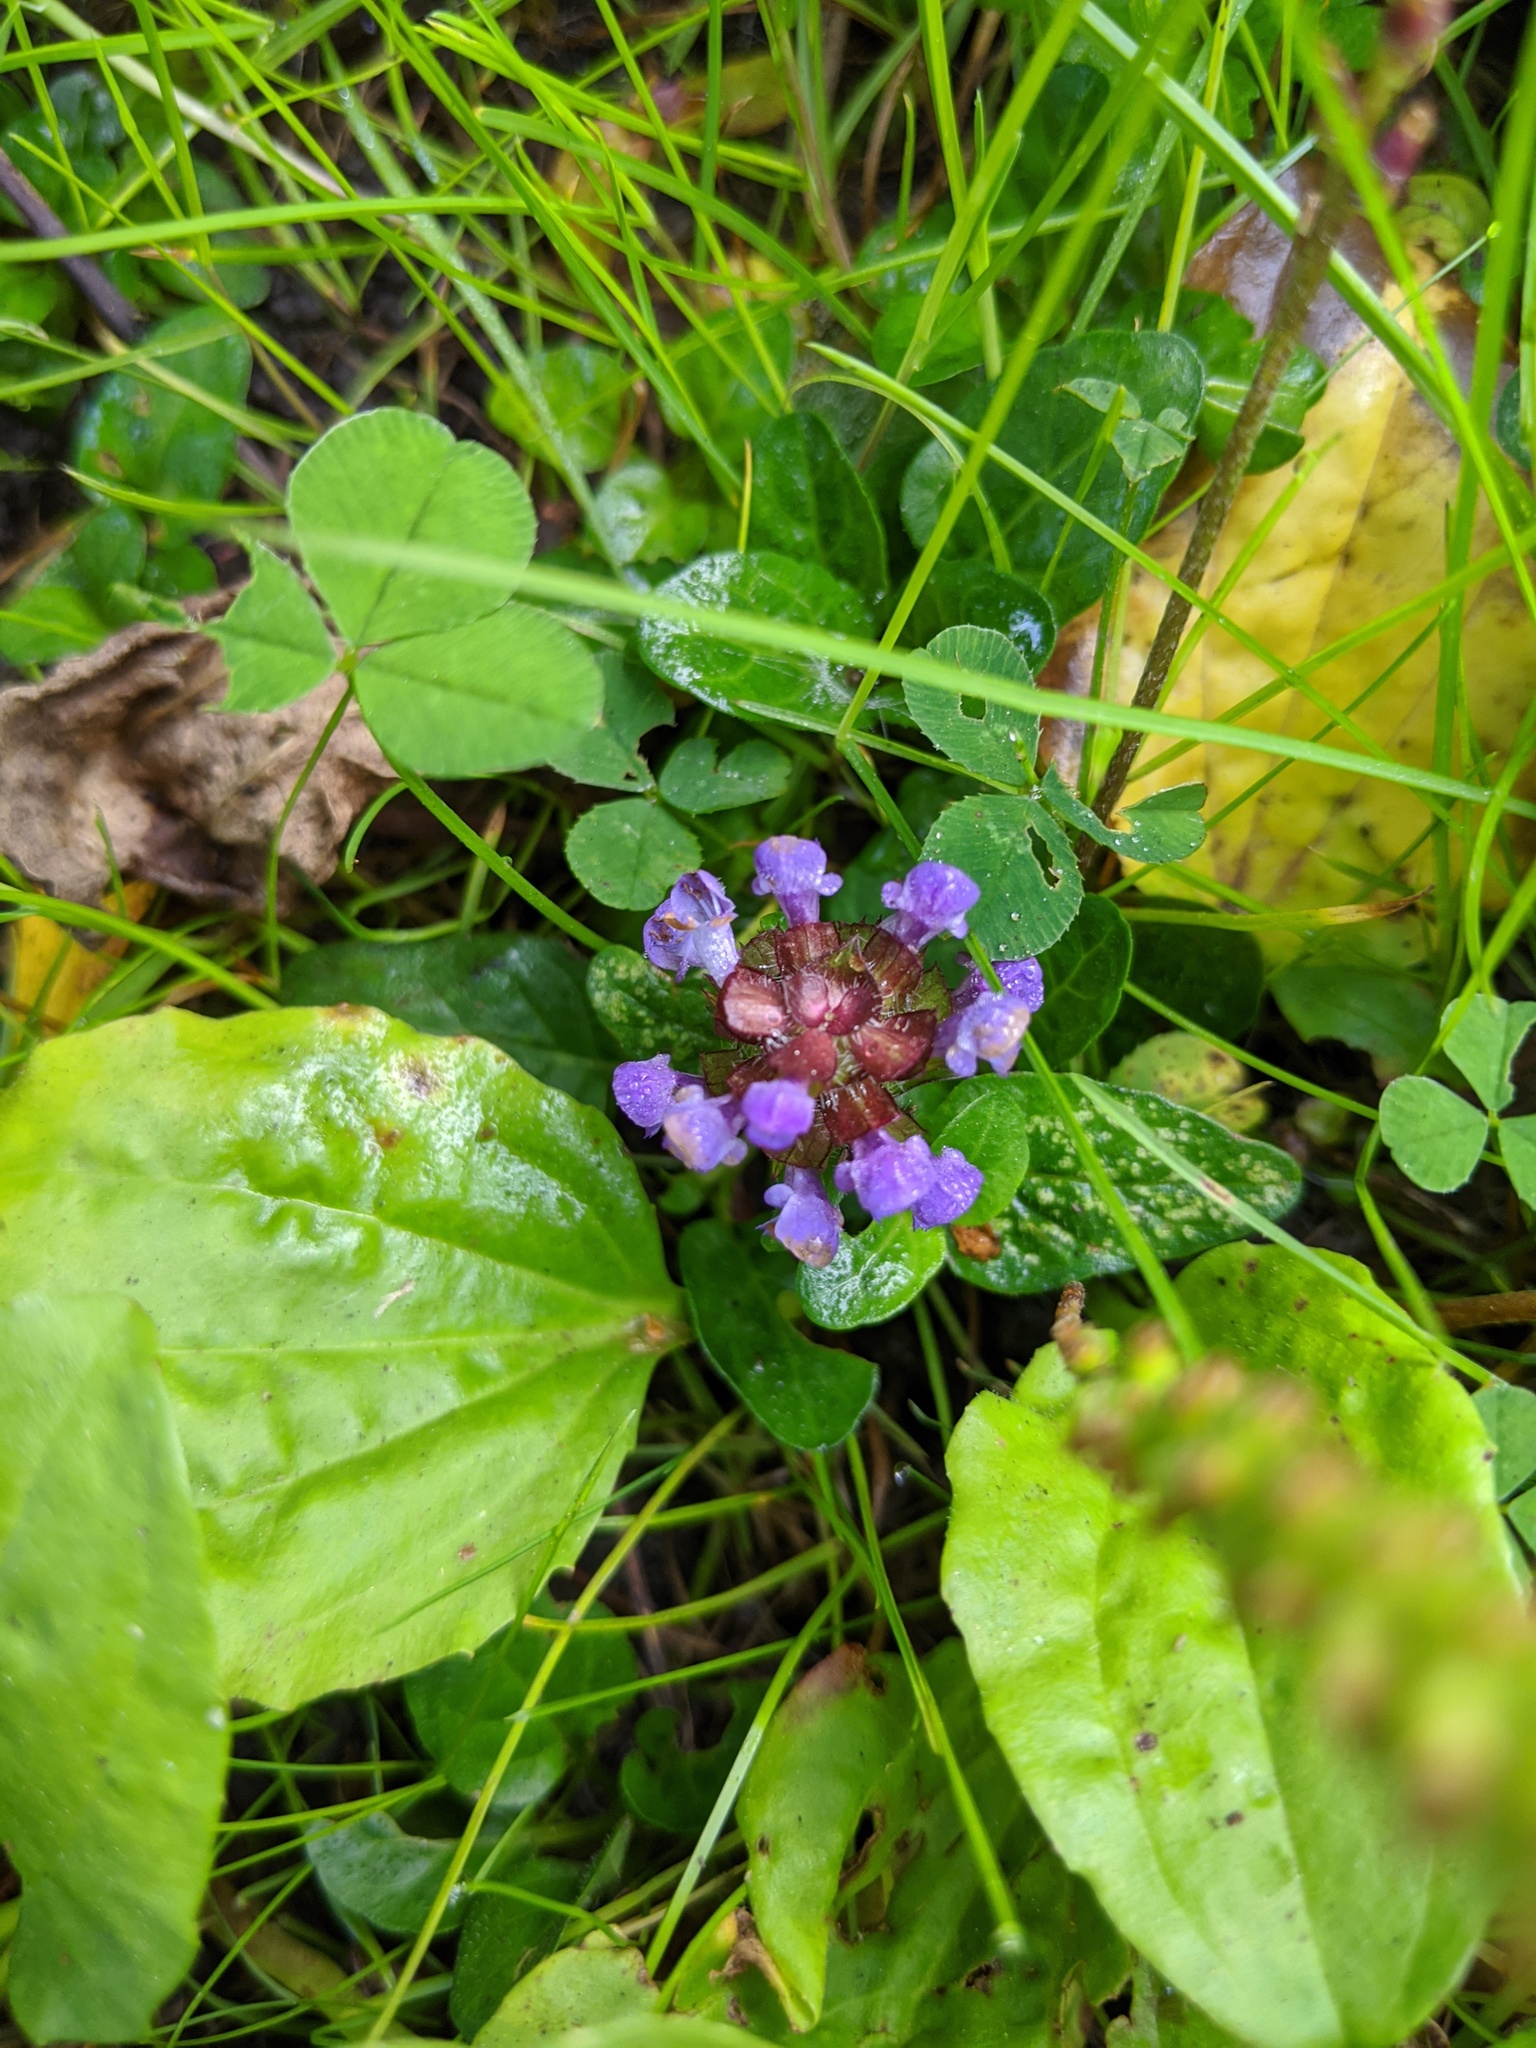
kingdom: Plantae
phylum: Tracheophyta
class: Magnoliopsida
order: Lamiales
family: Lamiaceae
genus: Prunella
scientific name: Prunella vulgaris
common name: Heal-all
